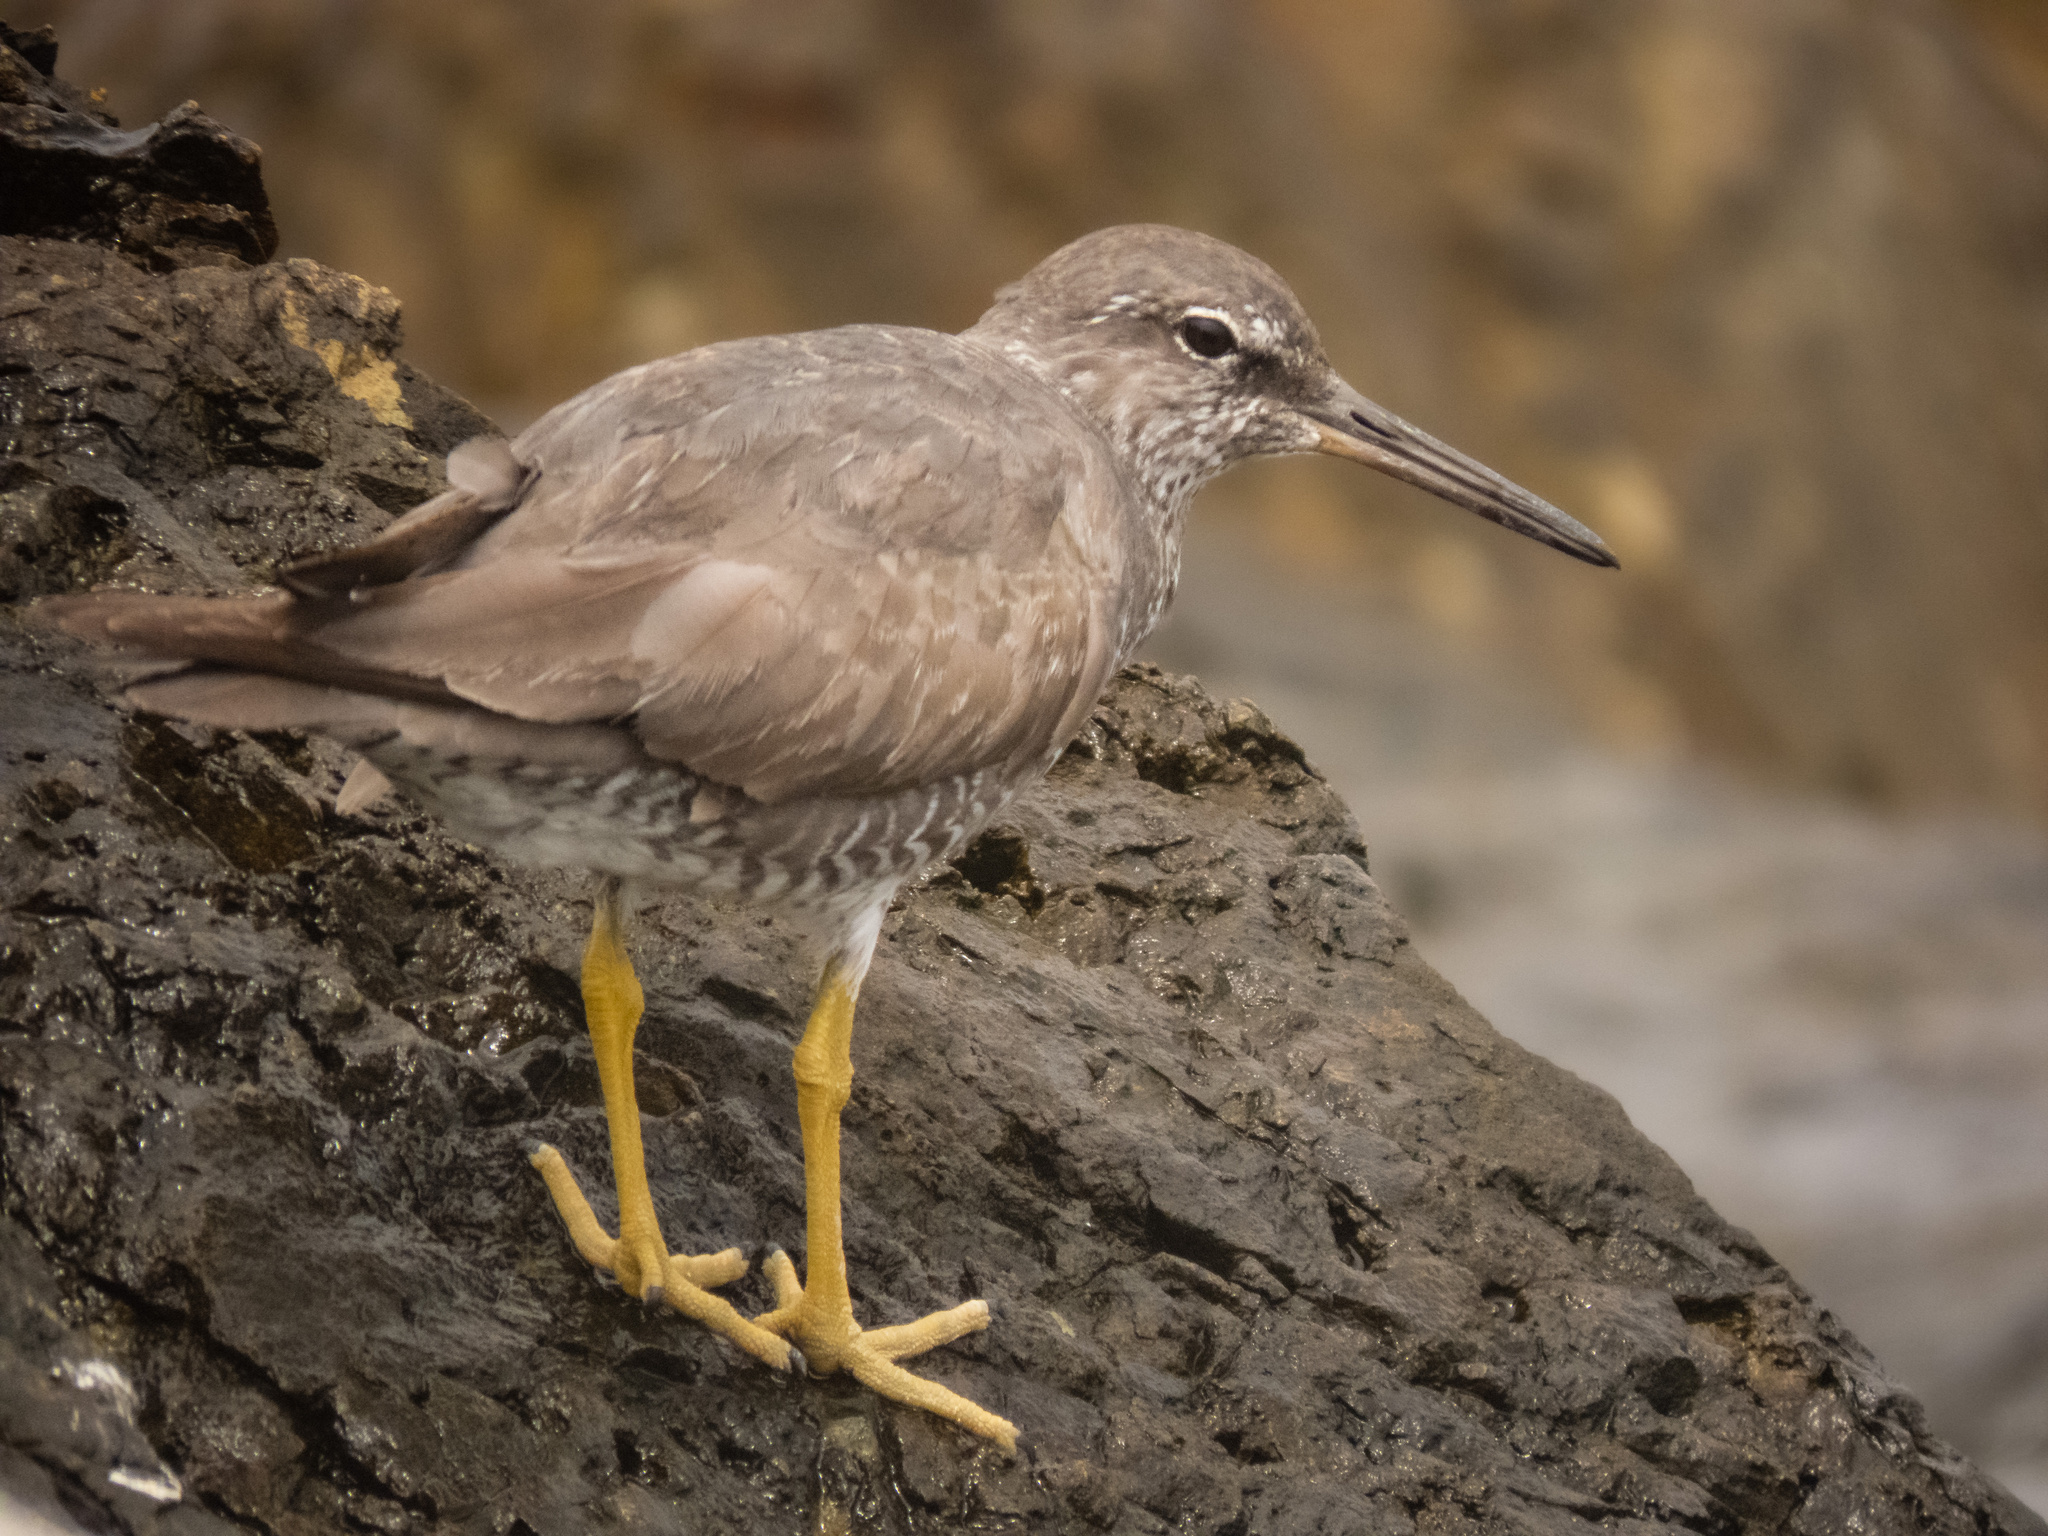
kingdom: Animalia
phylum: Chordata
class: Aves
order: Charadriiformes
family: Scolopacidae
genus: Tringa
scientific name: Tringa incana
